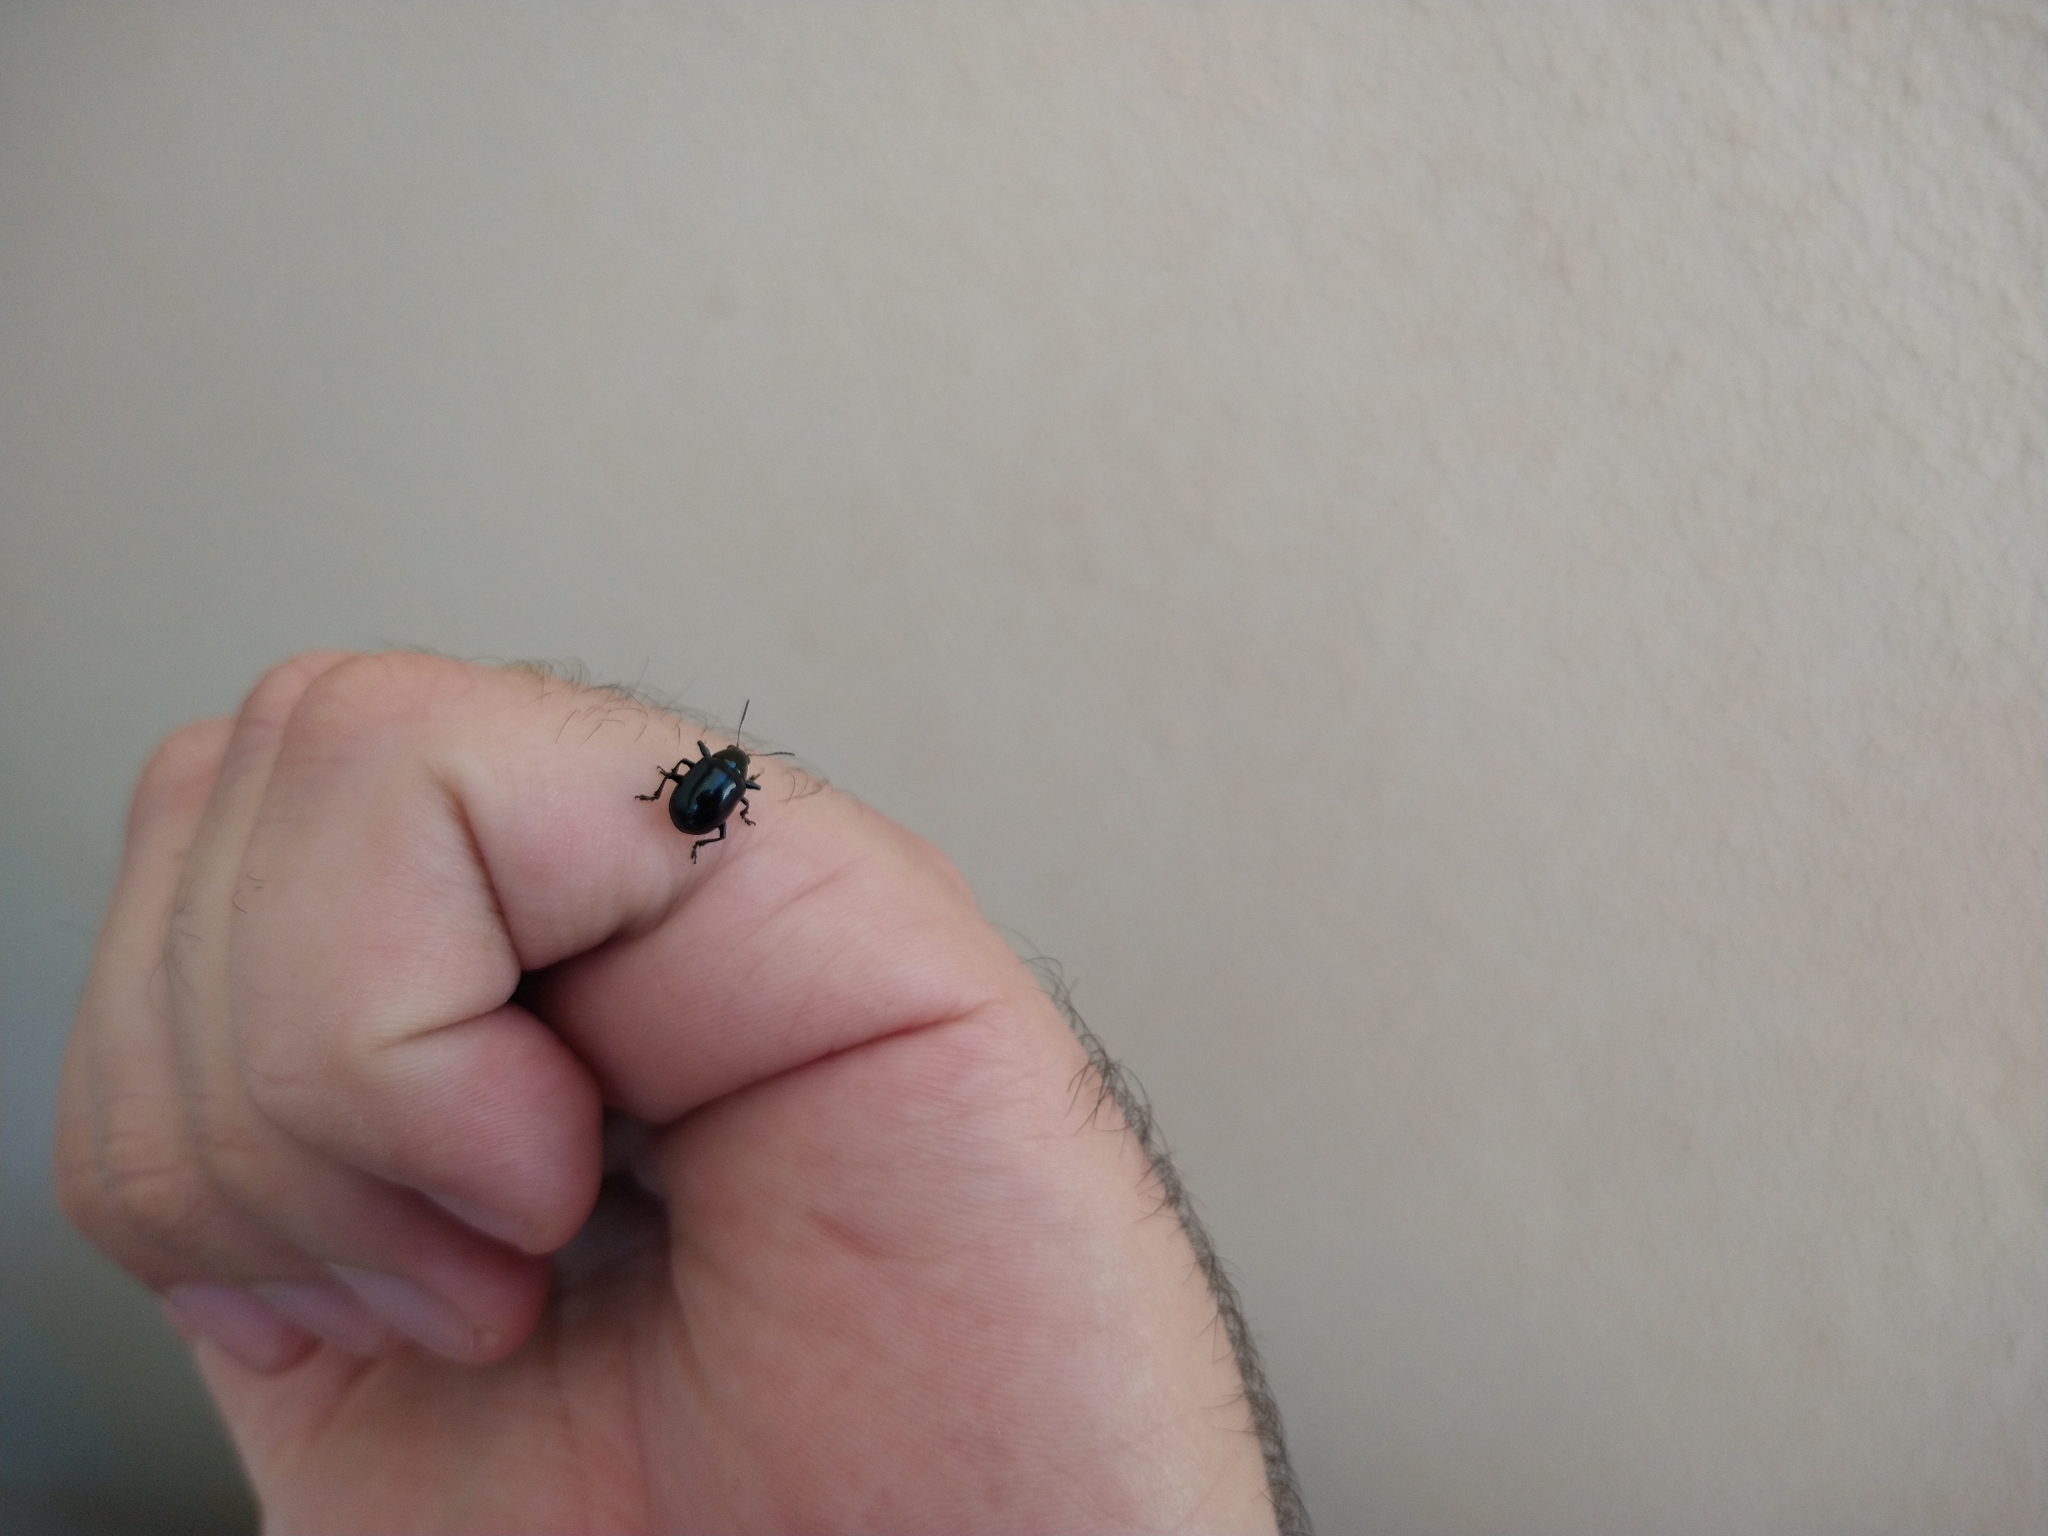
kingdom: Animalia
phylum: Arthropoda
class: Insecta
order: Coleoptera
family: Chrysomelidae
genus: Typophorus
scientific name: Typophorus nigritus
